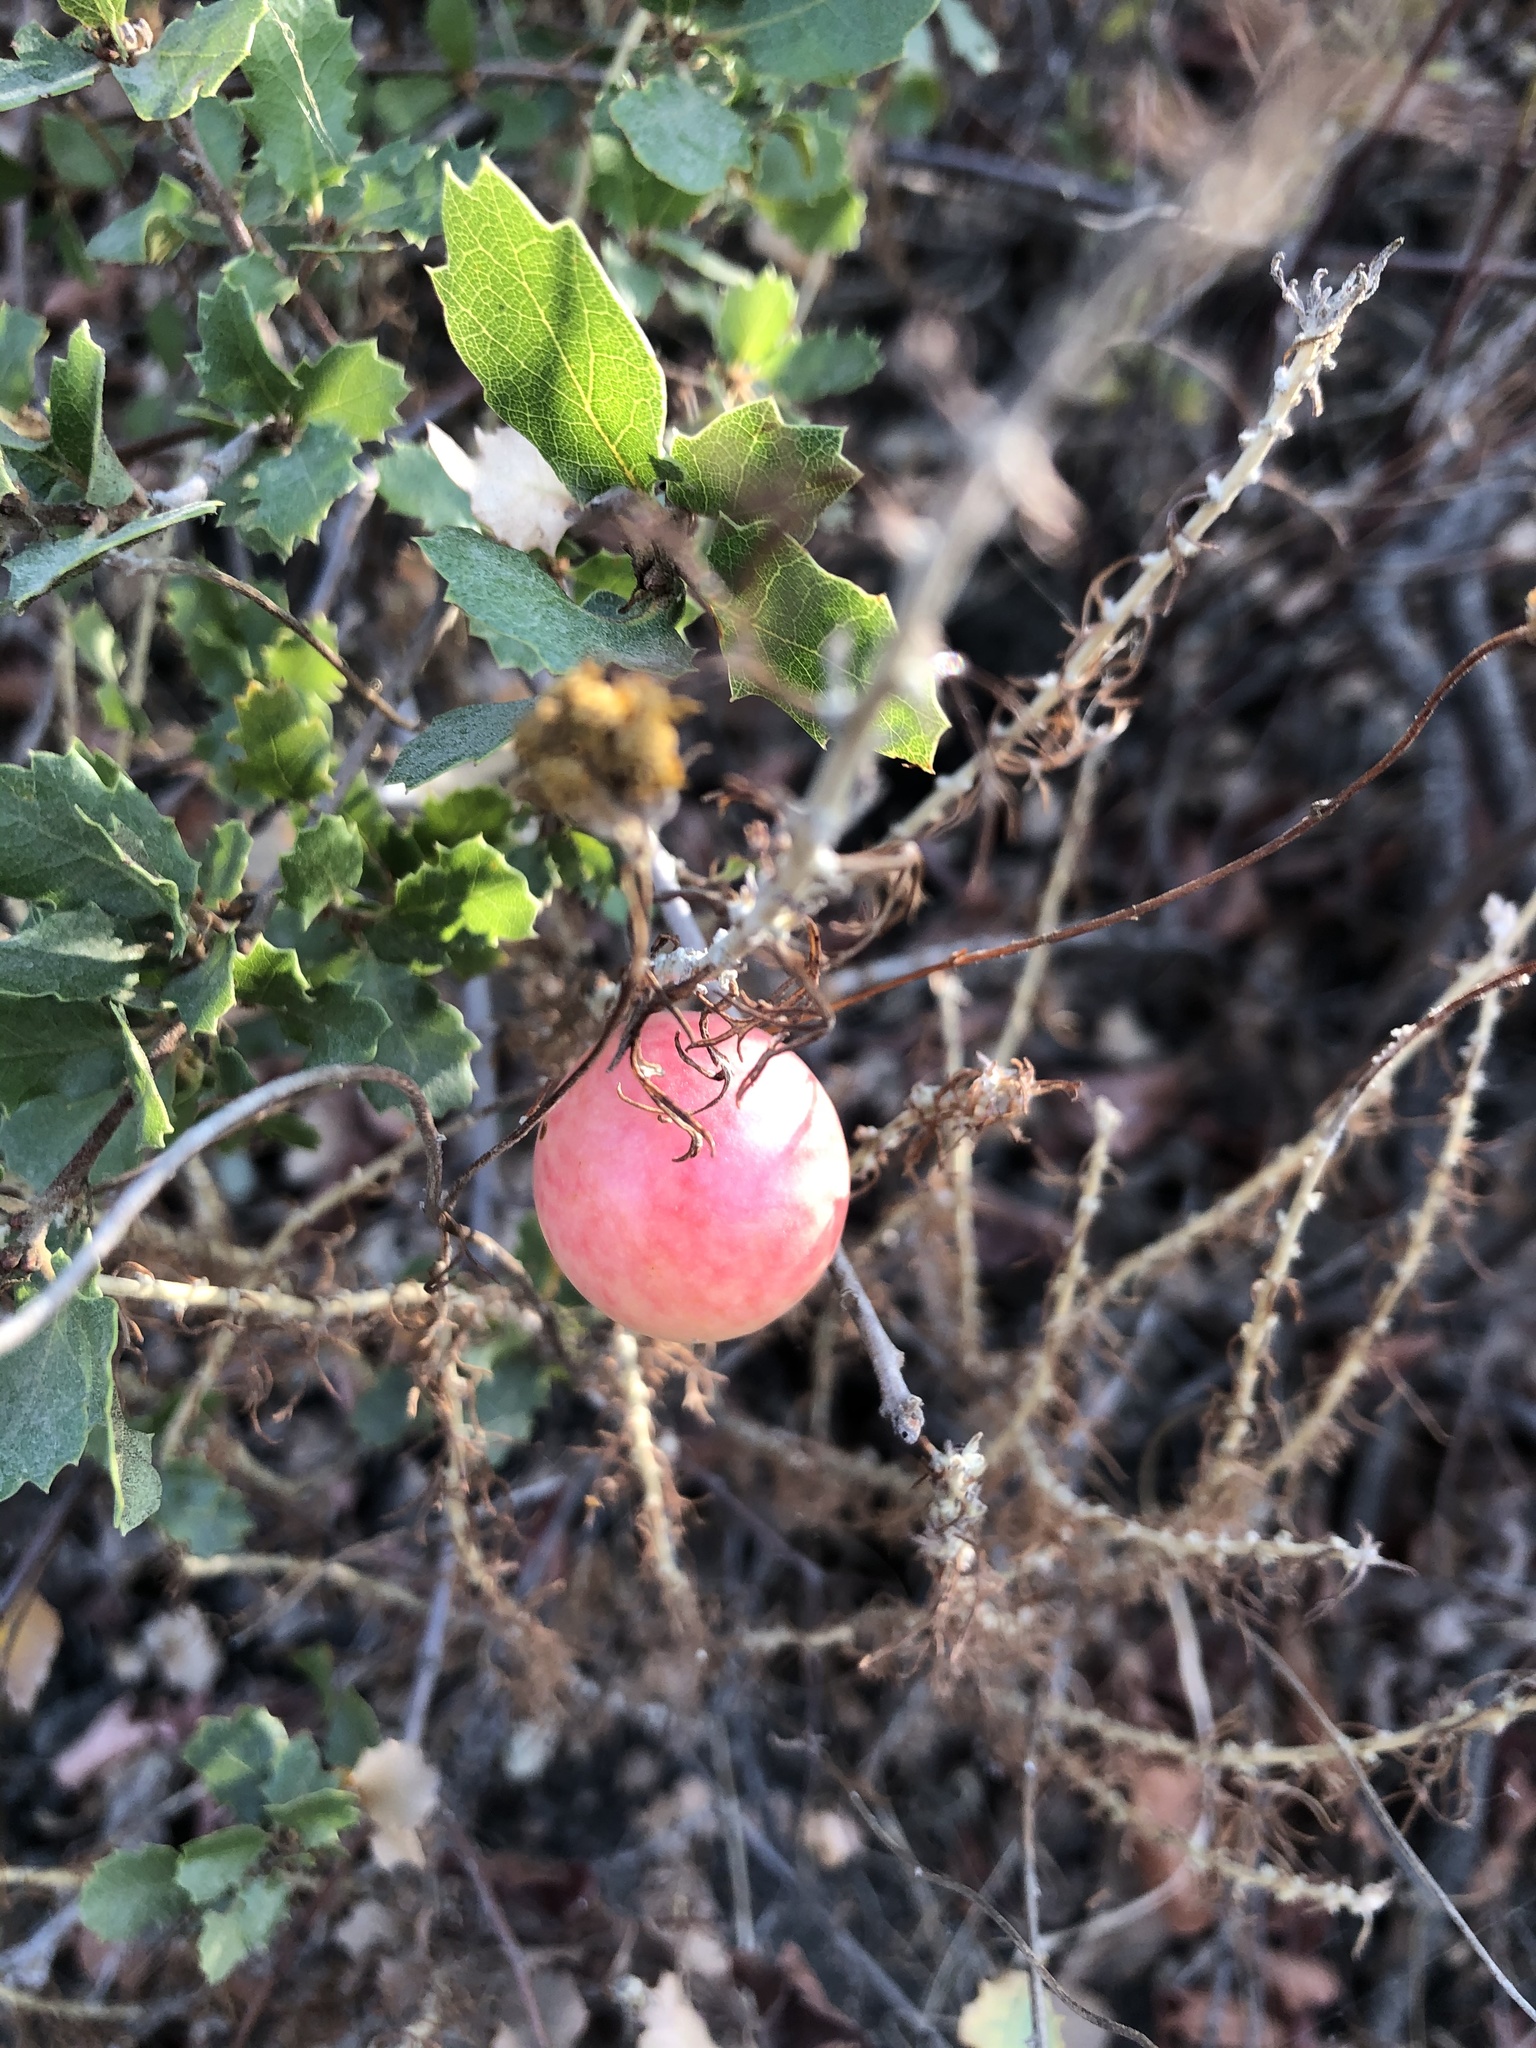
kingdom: Animalia
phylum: Arthropoda
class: Insecta
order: Hymenoptera
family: Cynipidae
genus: Andricus
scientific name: Andricus quercuscalifornicus
